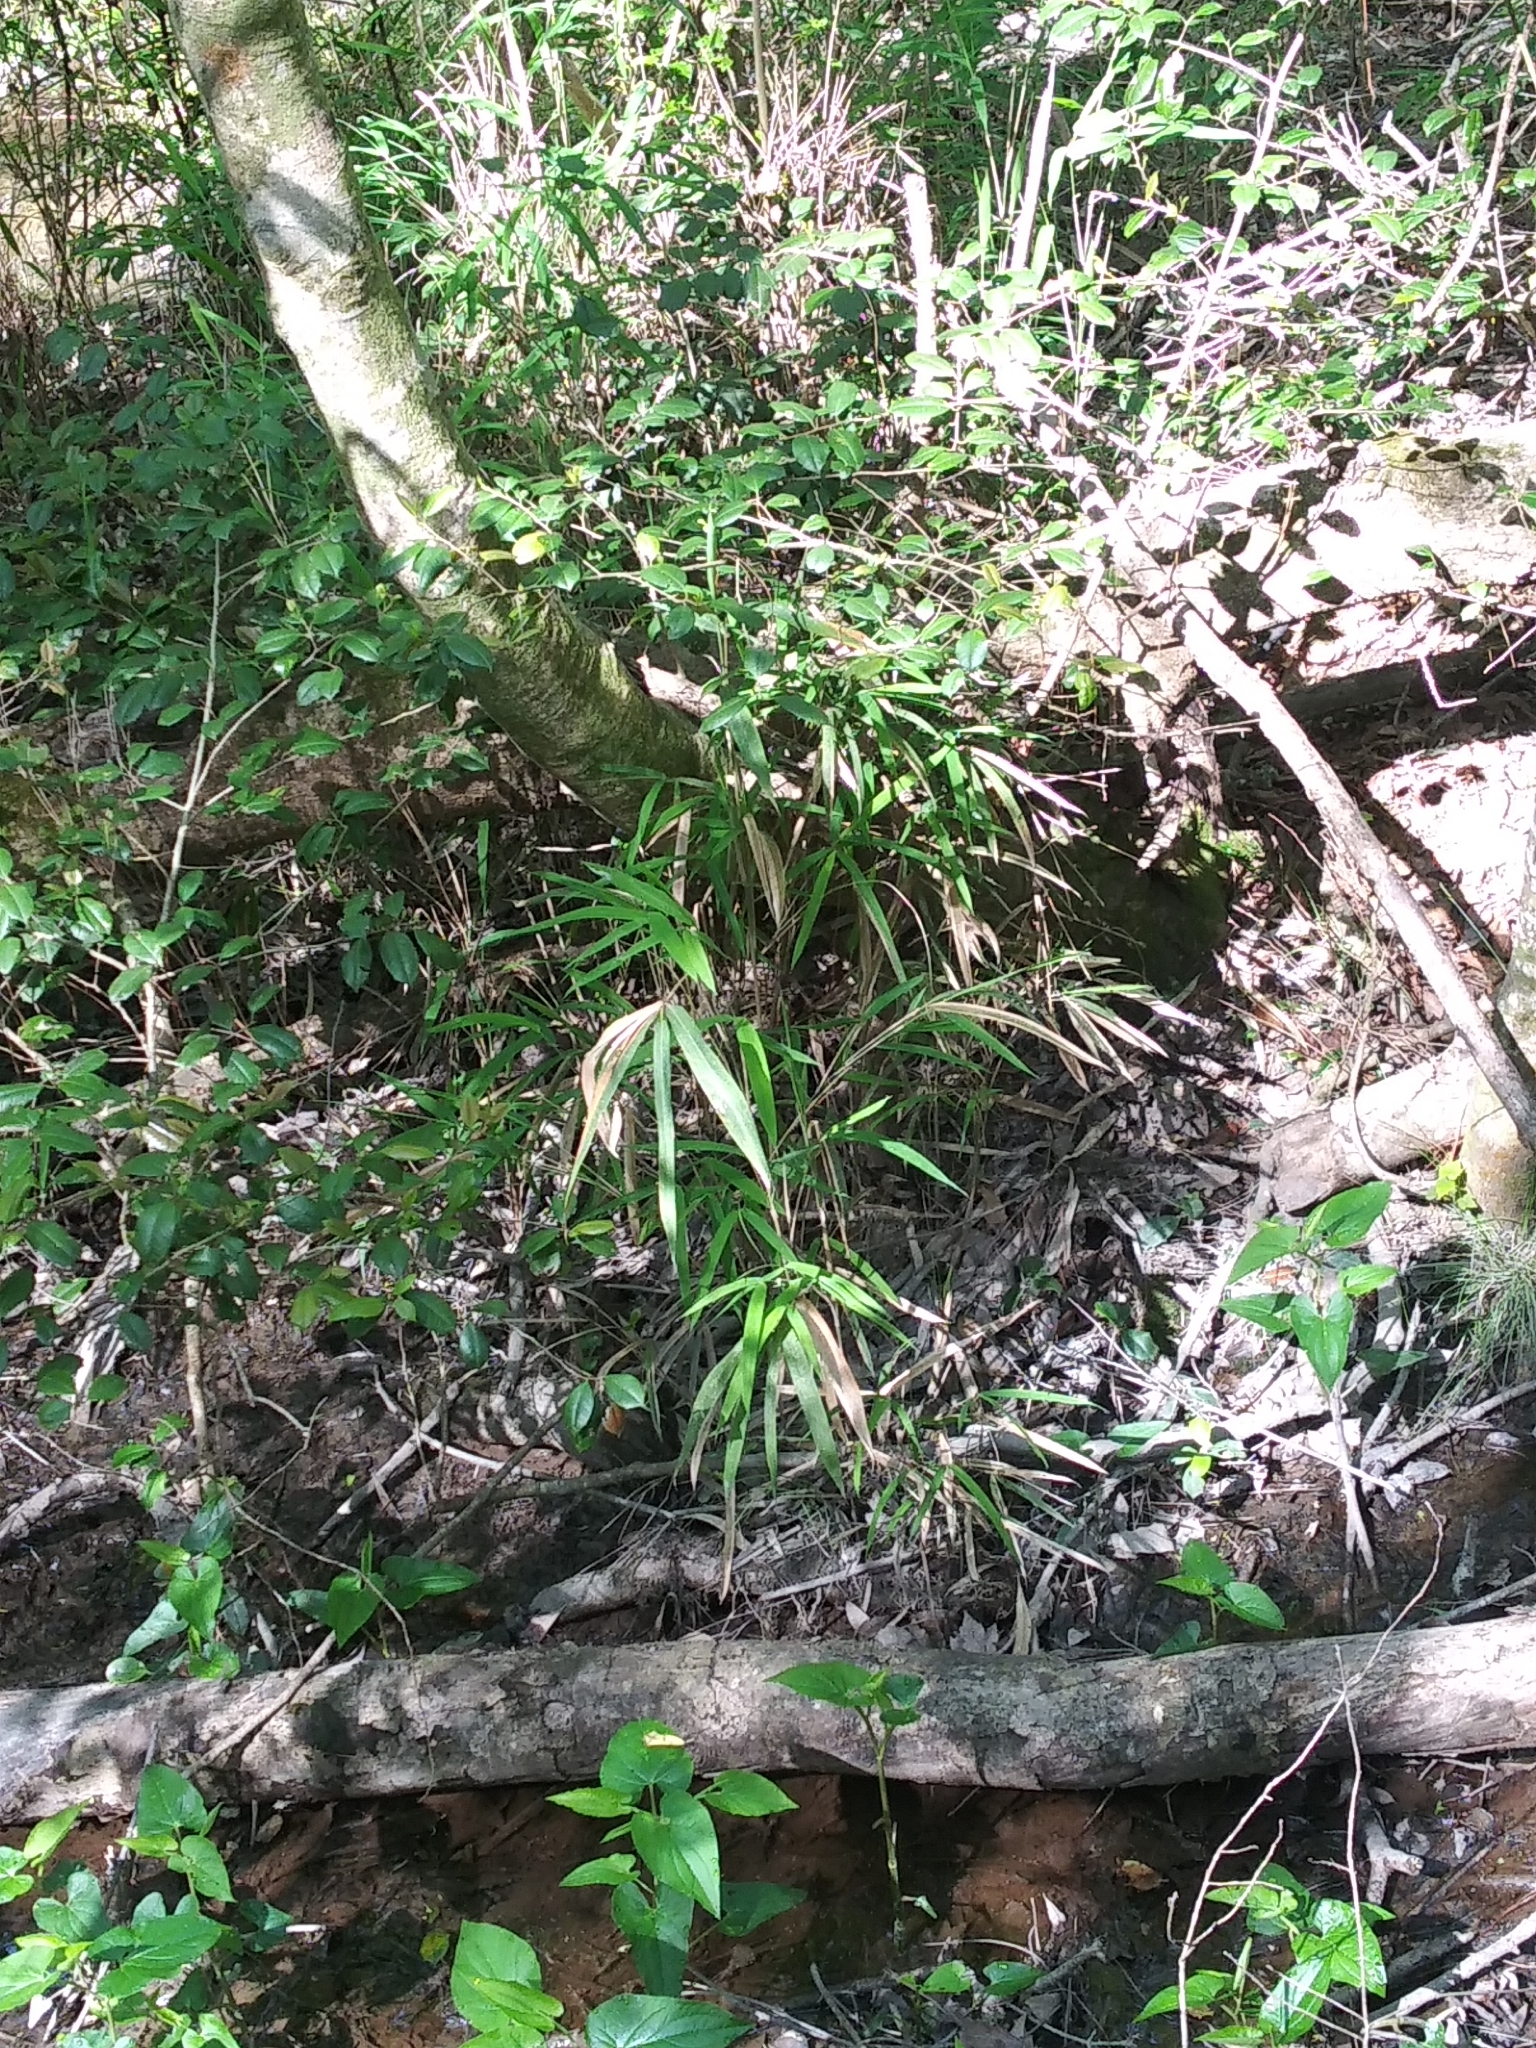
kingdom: Plantae
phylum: Tracheophyta
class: Liliopsida
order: Poales
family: Poaceae
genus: Arundinaria
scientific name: Arundinaria tecta
